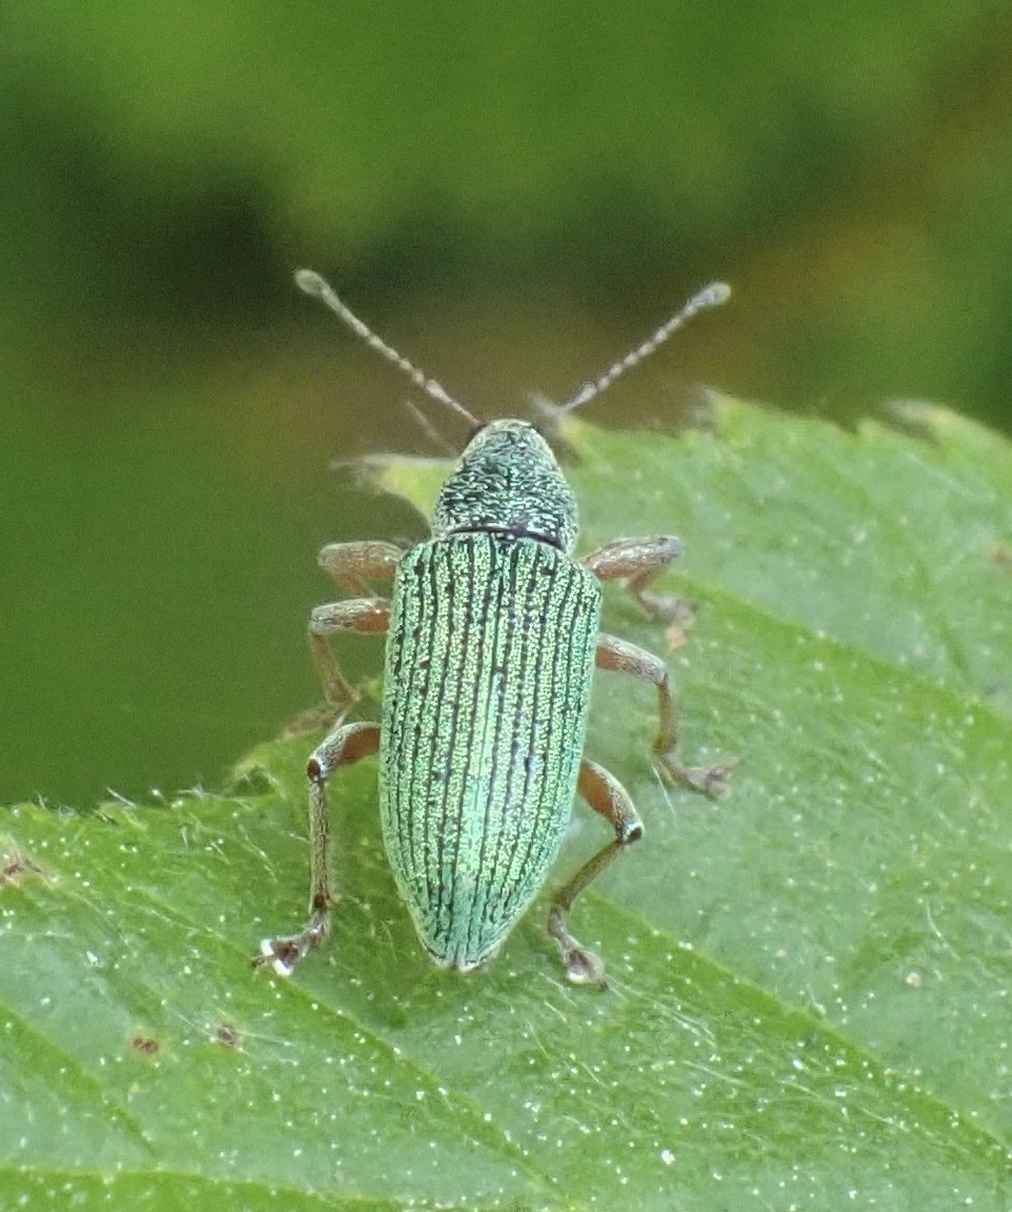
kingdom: Animalia
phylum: Arthropoda
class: Insecta
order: Coleoptera
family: Curculionidae
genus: Polydrusus
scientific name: Polydrusus formosus
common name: Weevil
